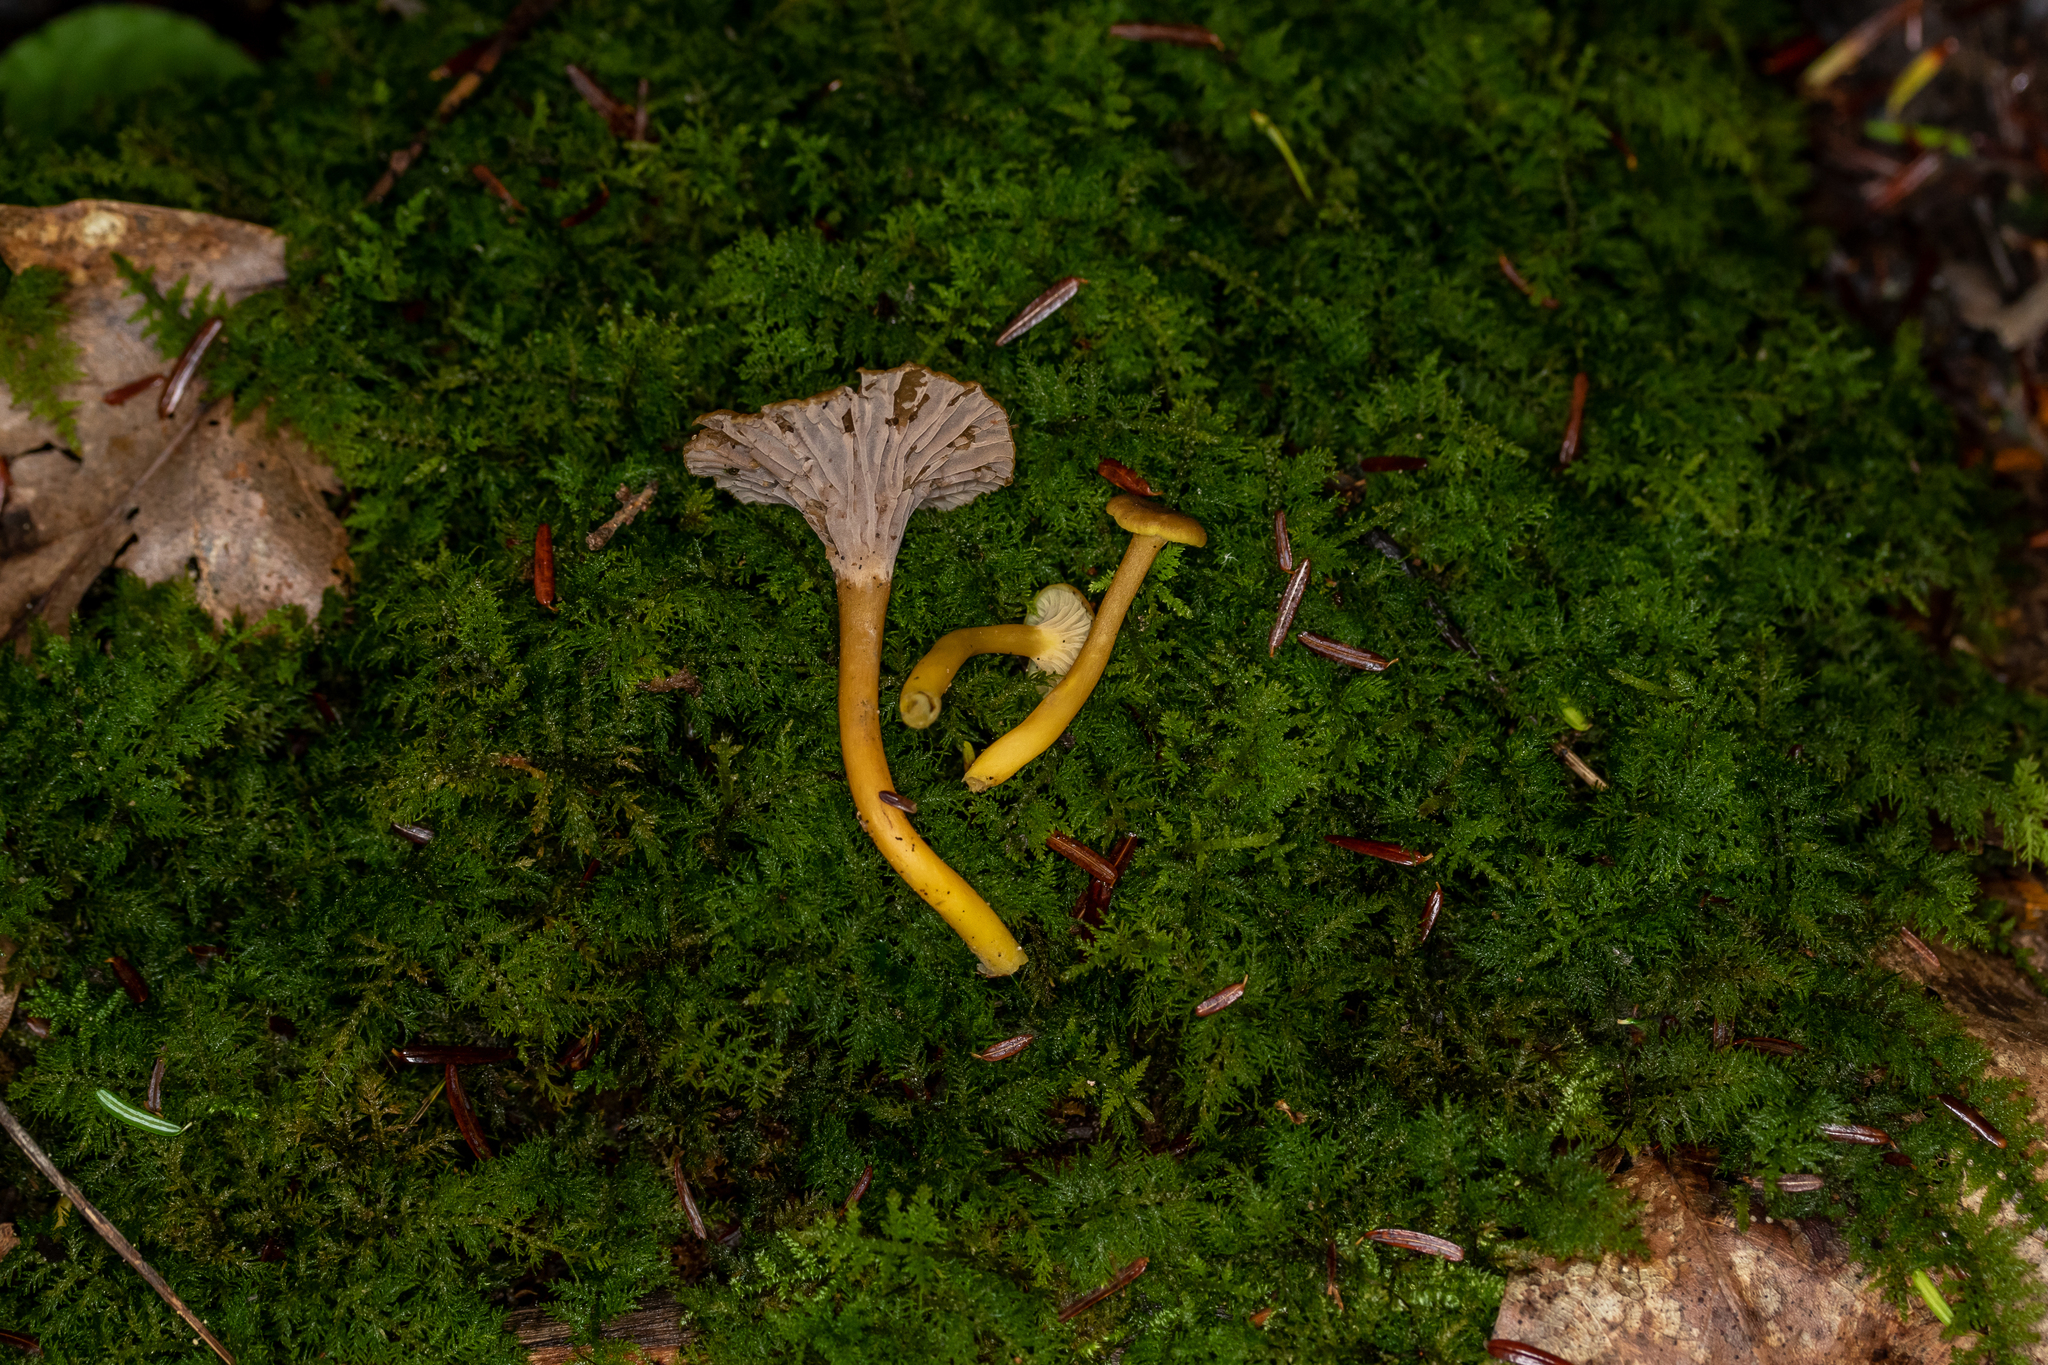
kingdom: Fungi
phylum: Basidiomycota
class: Agaricomycetes
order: Cantharellales
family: Hydnaceae
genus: Craterellus
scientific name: Craterellus tubaeformis
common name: Yellowfoot
